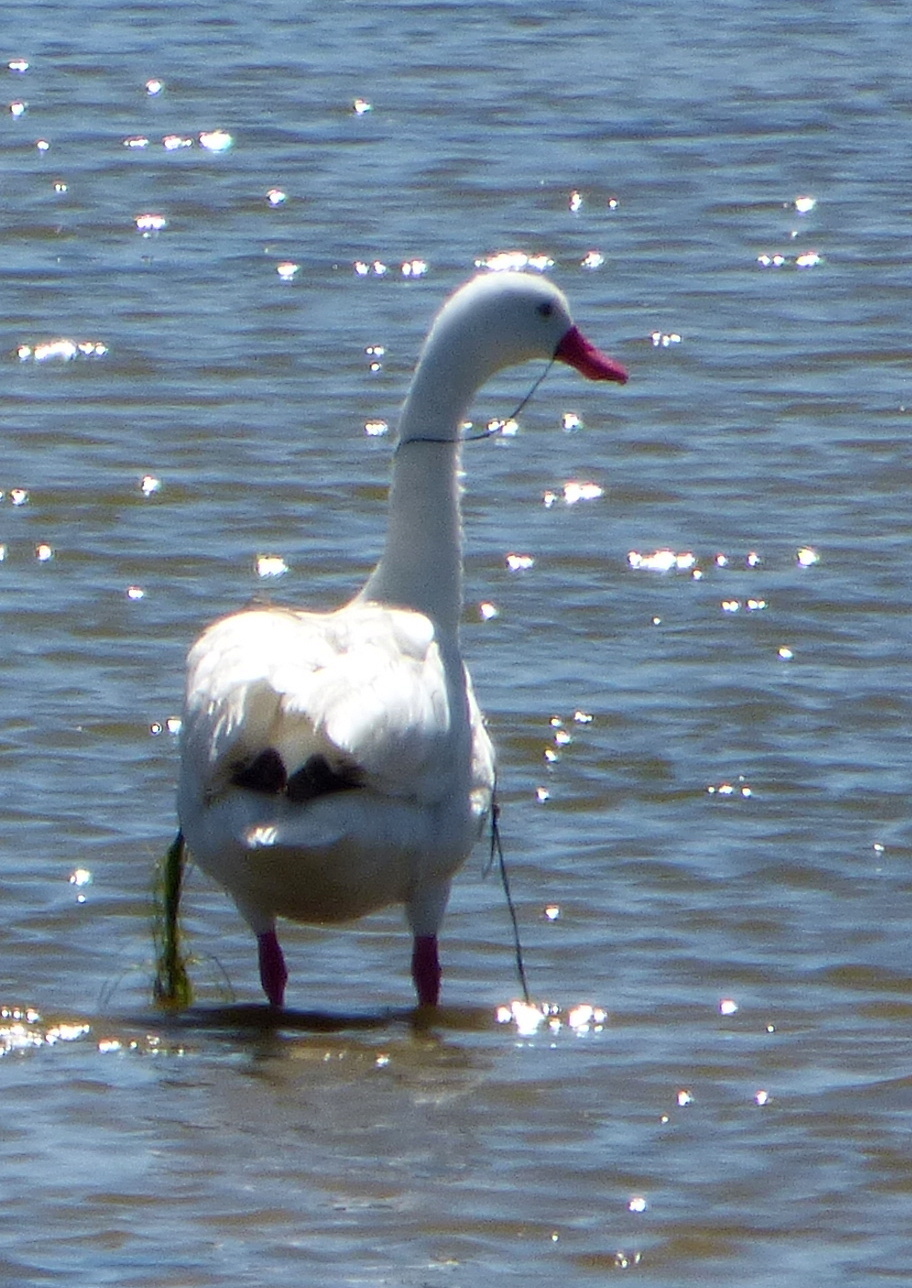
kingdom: Animalia
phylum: Chordata
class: Aves
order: Anseriformes
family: Anatidae
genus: Coscoroba
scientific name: Coscoroba coscoroba
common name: Coscoroba swan
